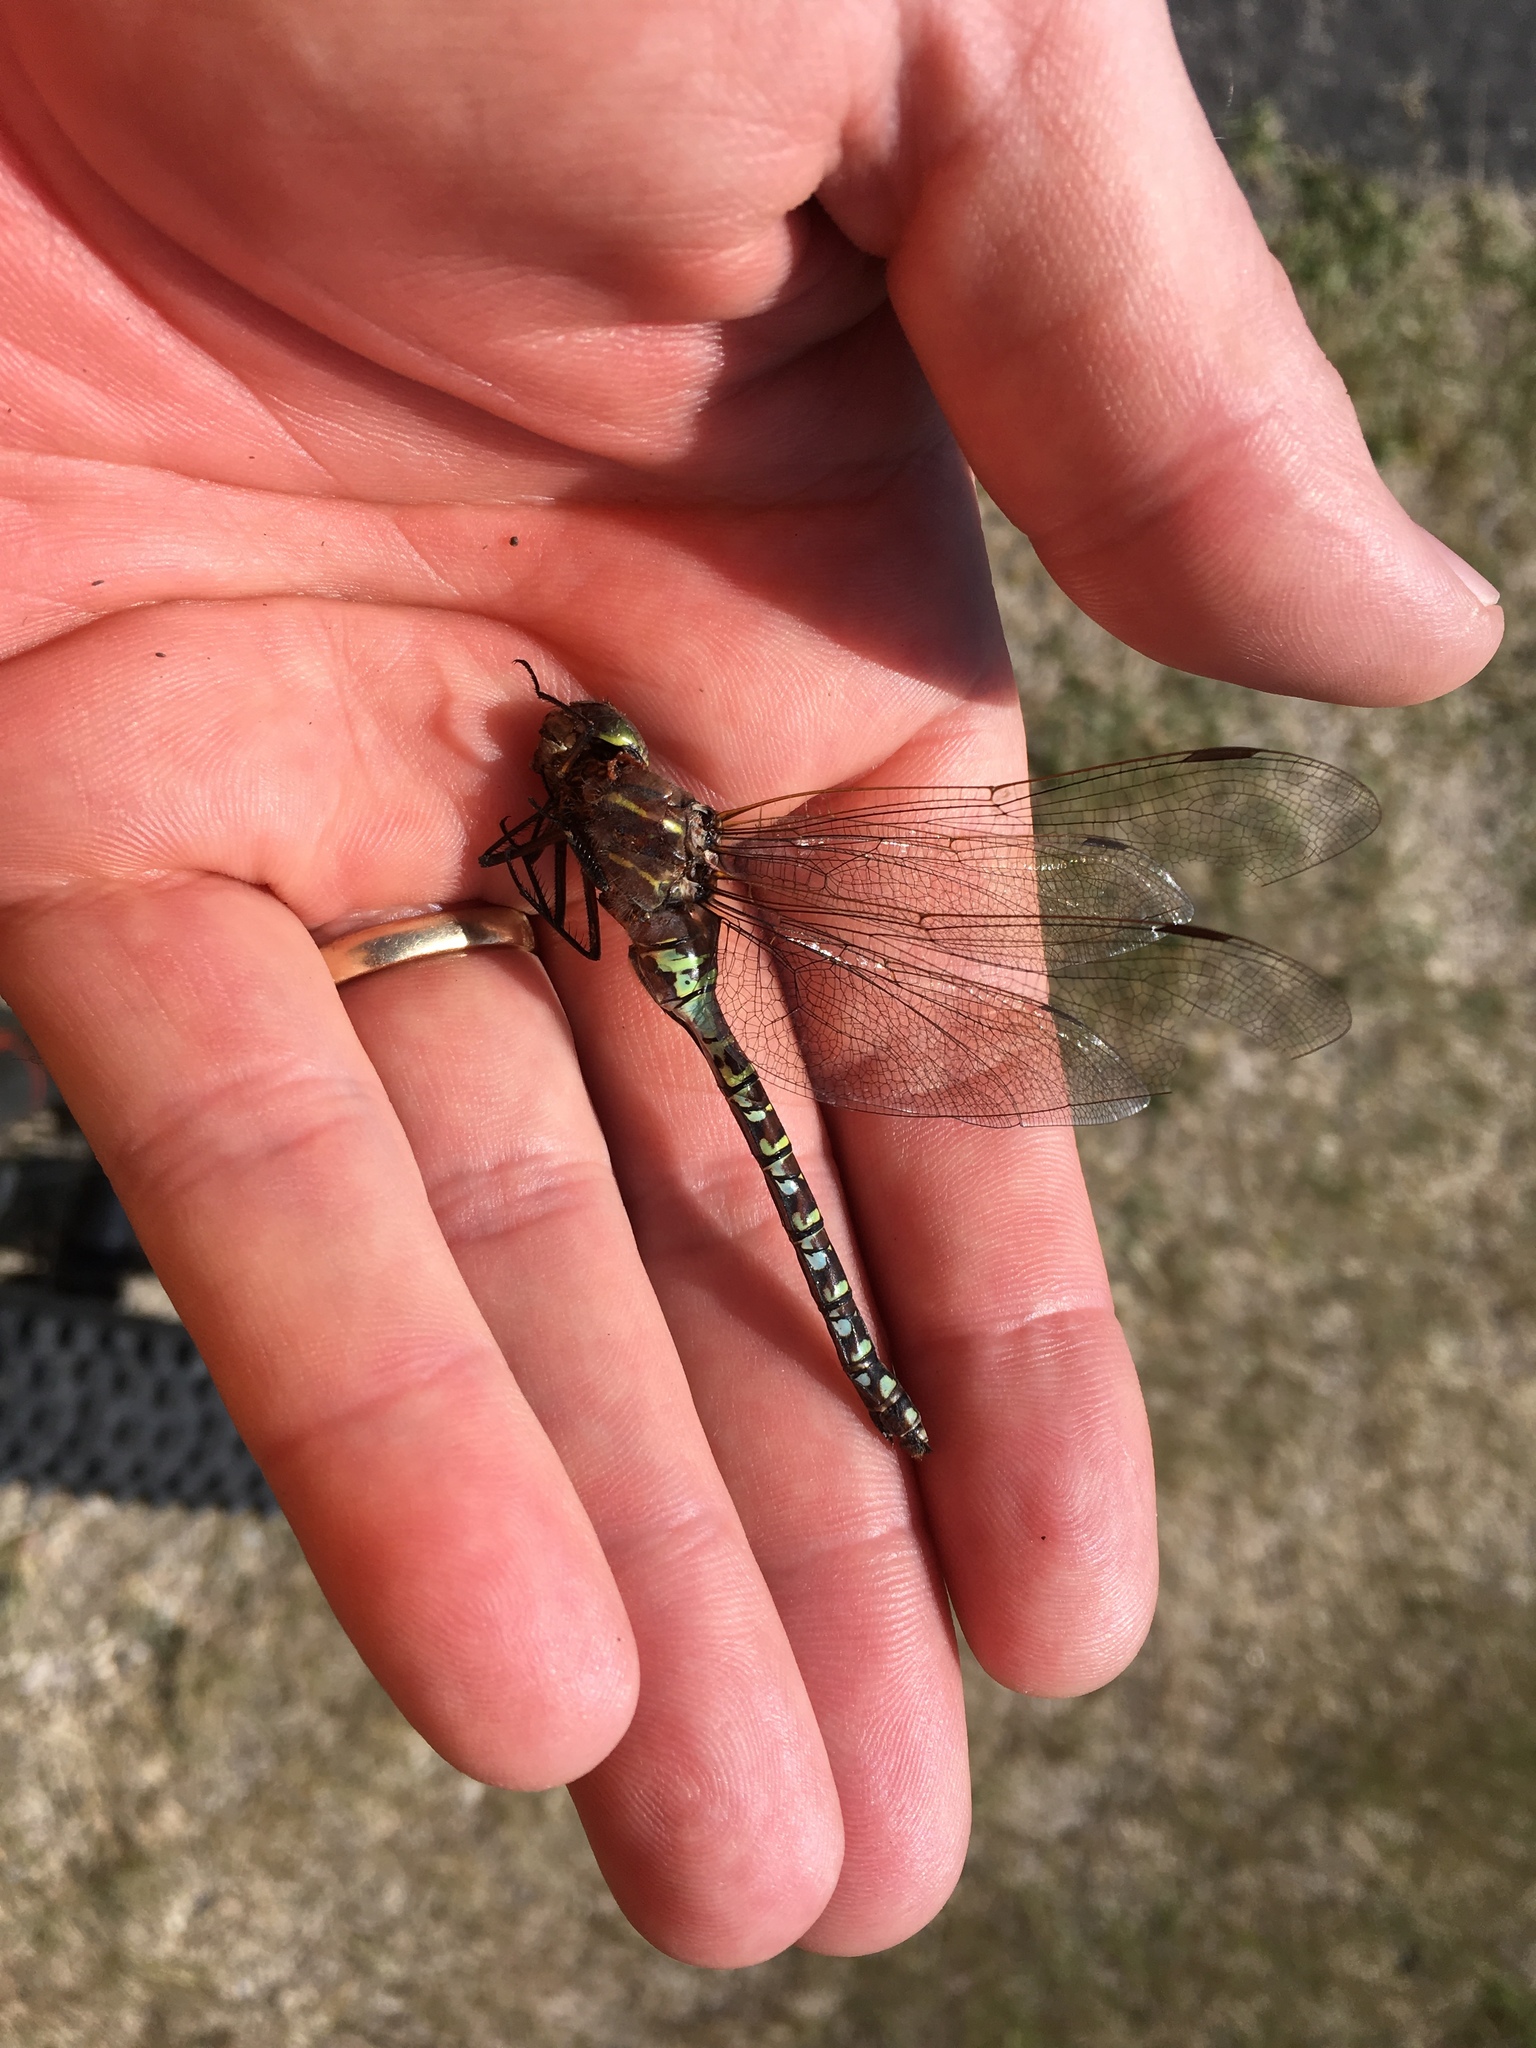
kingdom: Animalia
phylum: Arthropoda
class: Insecta
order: Odonata
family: Aeshnidae
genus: Aeshna
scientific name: Aeshna interrupta
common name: Variable darner
